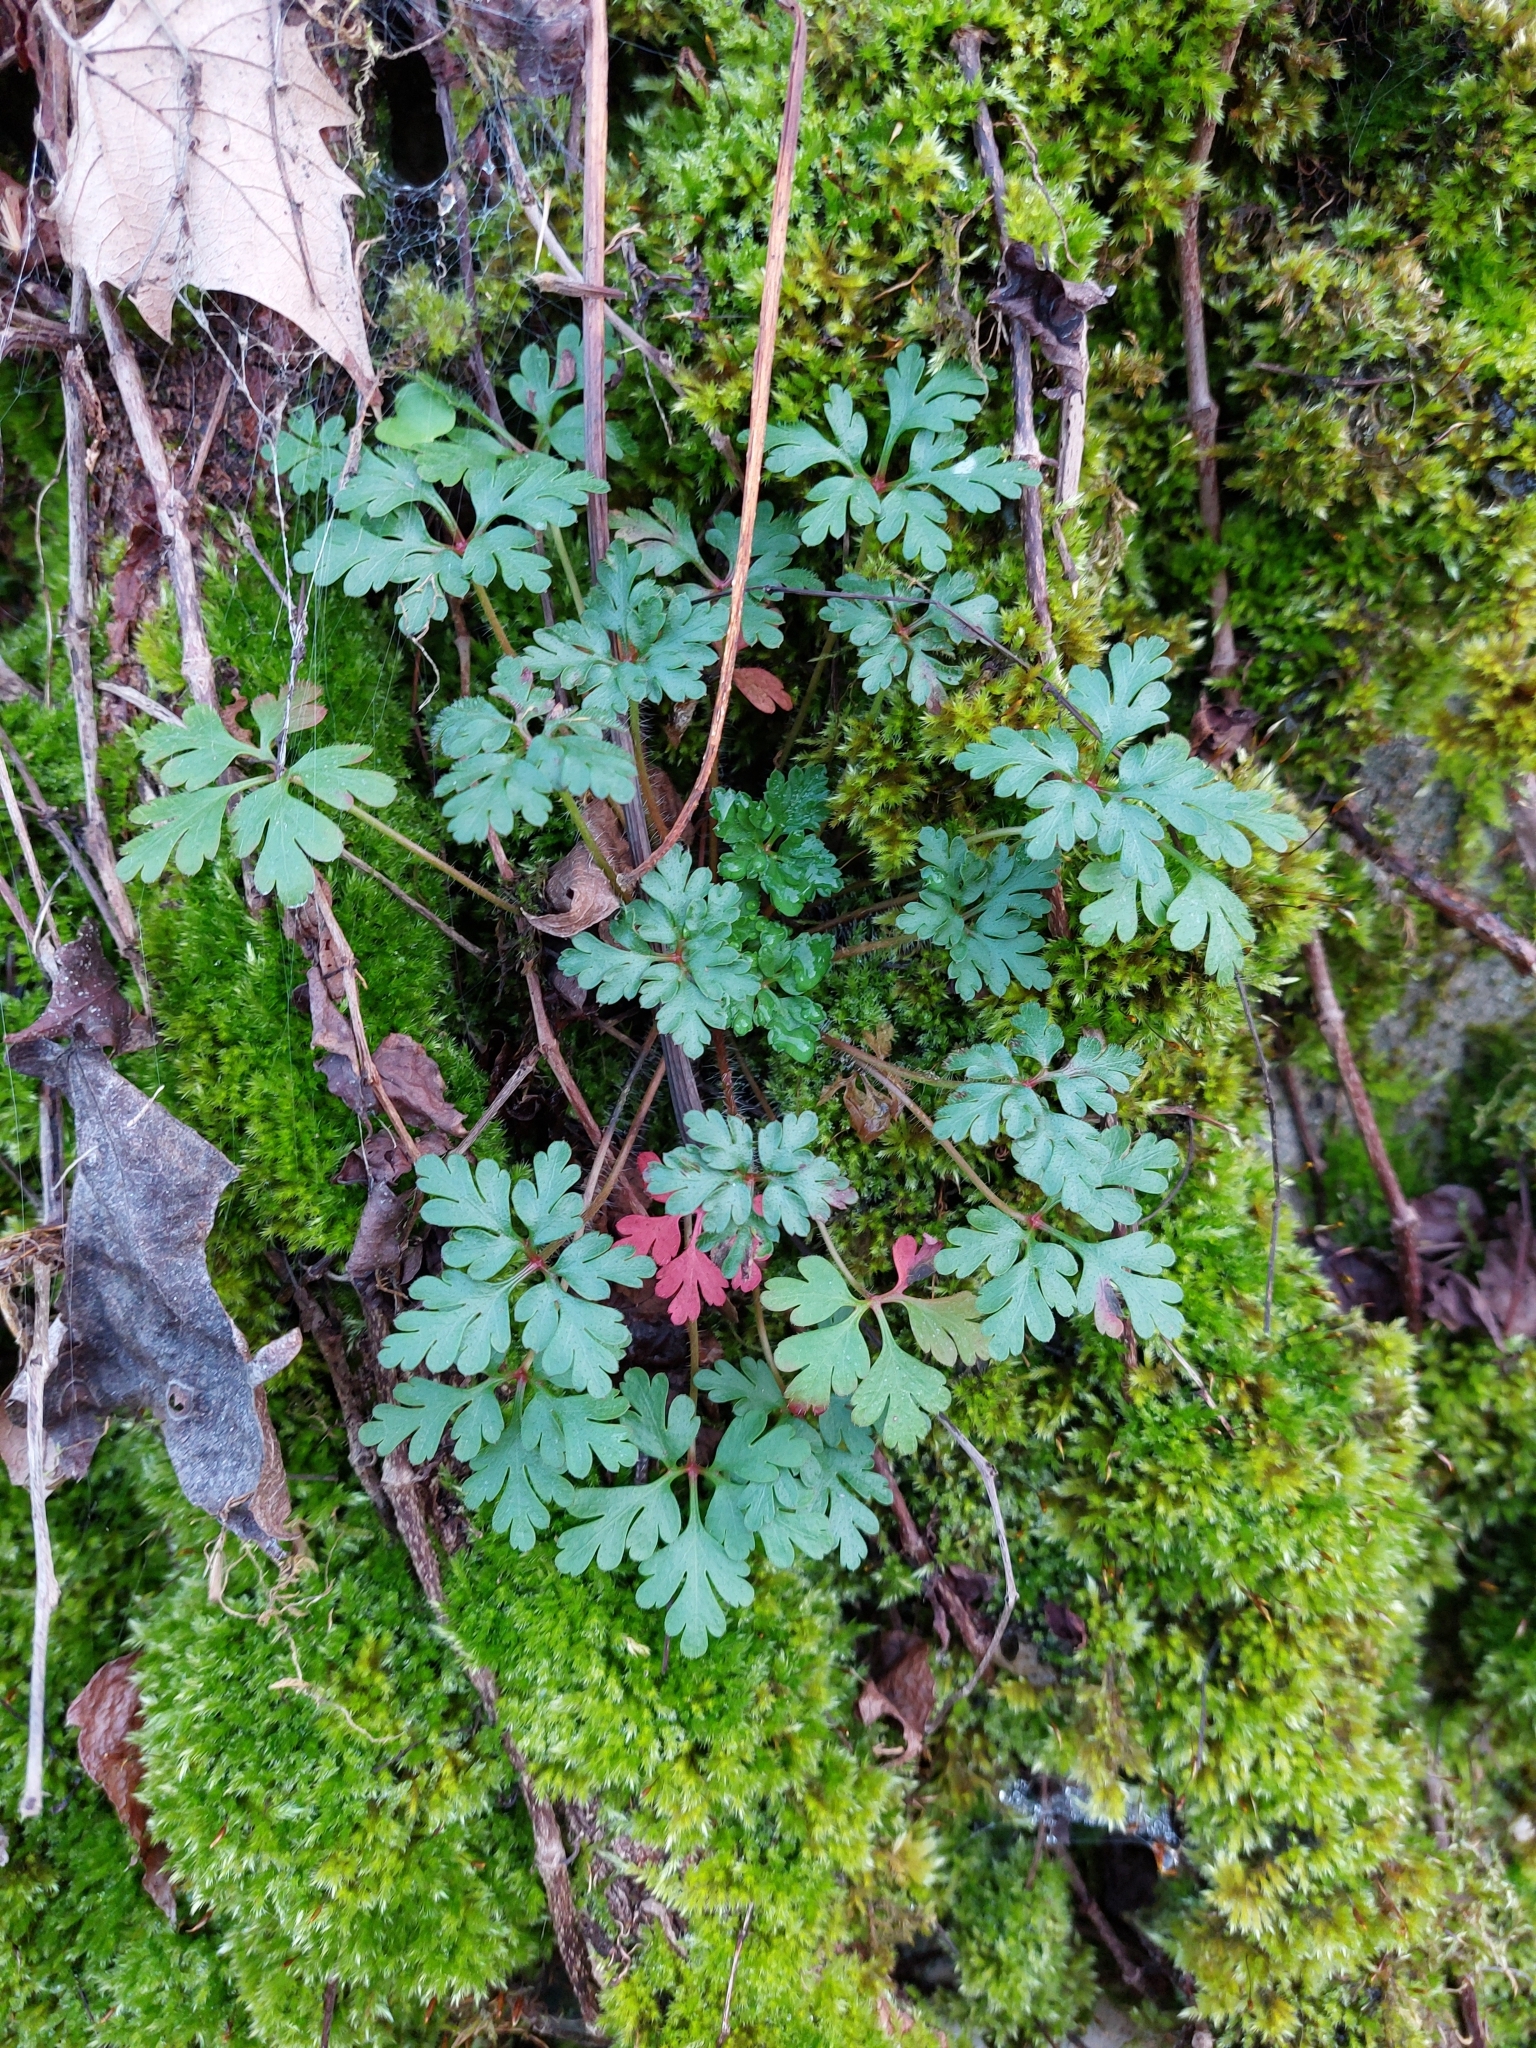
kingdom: Plantae
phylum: Tracheophyta
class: Magnoliopsida
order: Geraniales
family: Geraniaceae
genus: Geranium
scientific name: Geranium robertianum
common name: Herb-robert
